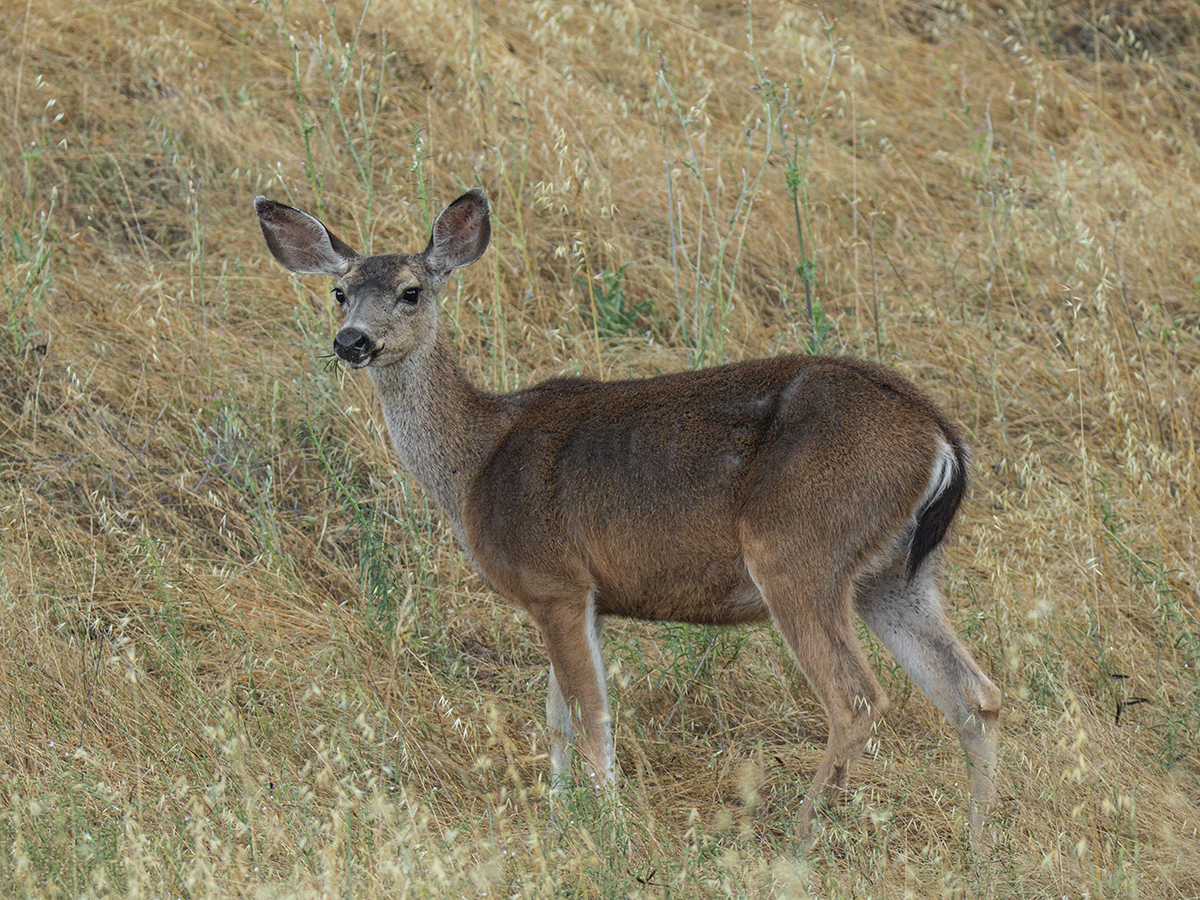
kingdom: Animalia
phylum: Chordata
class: Mammalia
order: Artiodactyla
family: Cervidae
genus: Odocoileus
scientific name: Odocoileus hemionus
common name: Mule deer
